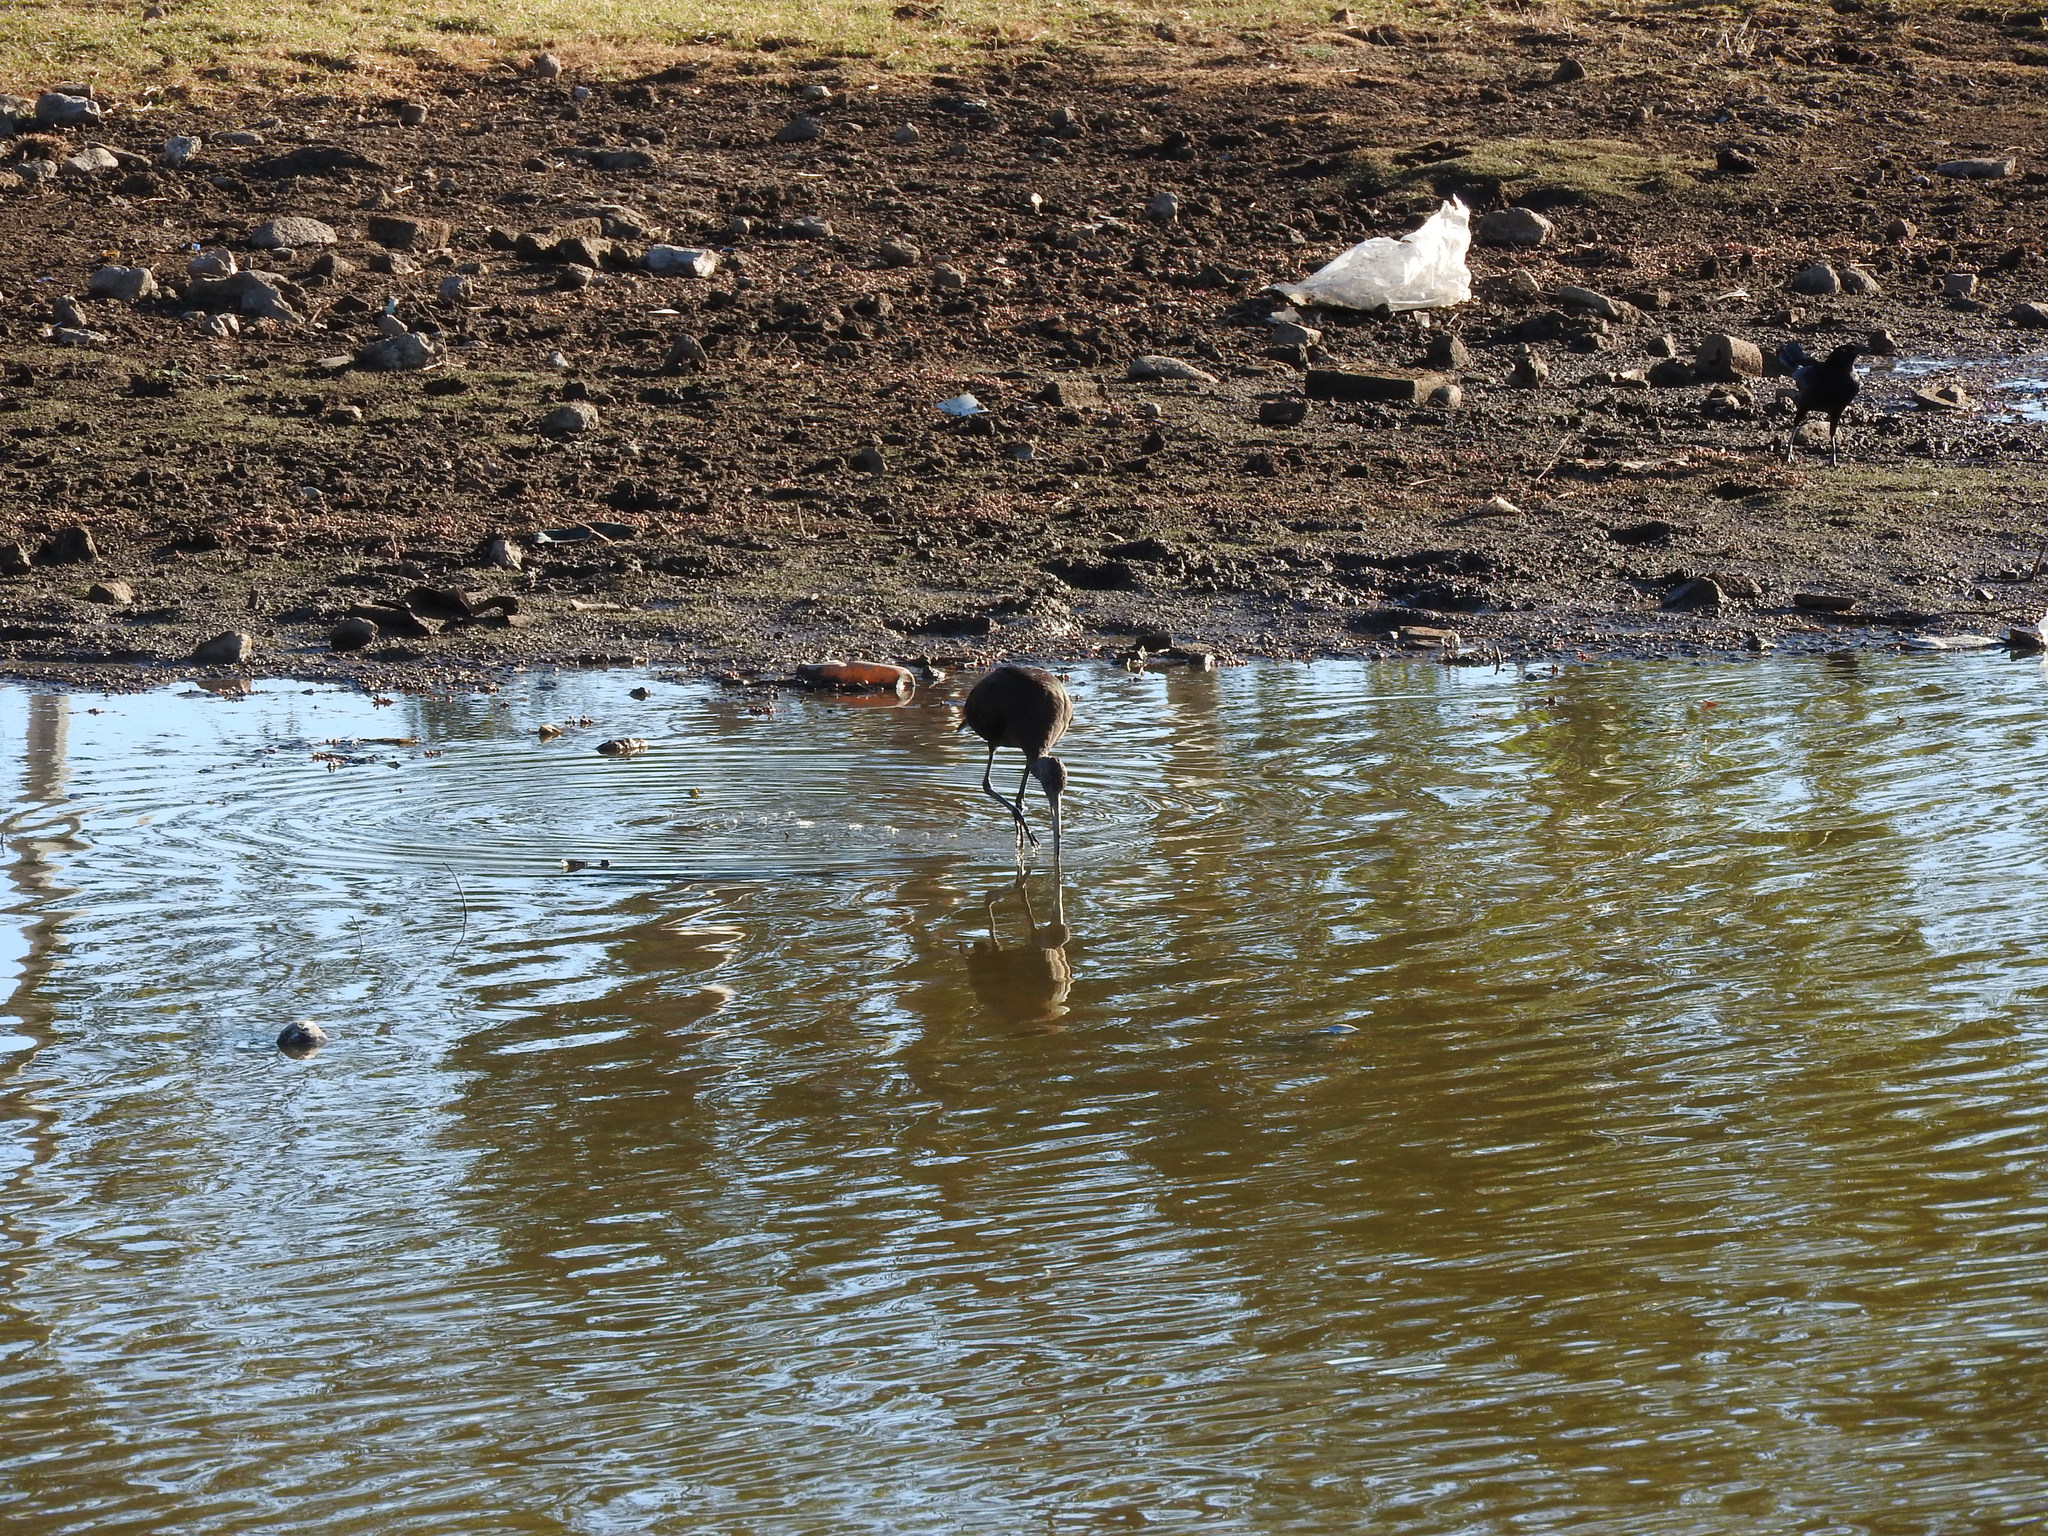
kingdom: Animalia
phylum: Chordata
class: Aves
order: Passeriformes
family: Icteridae
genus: Quiscalus
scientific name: Quiscalus mexicanus
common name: Great-tailed grackle
